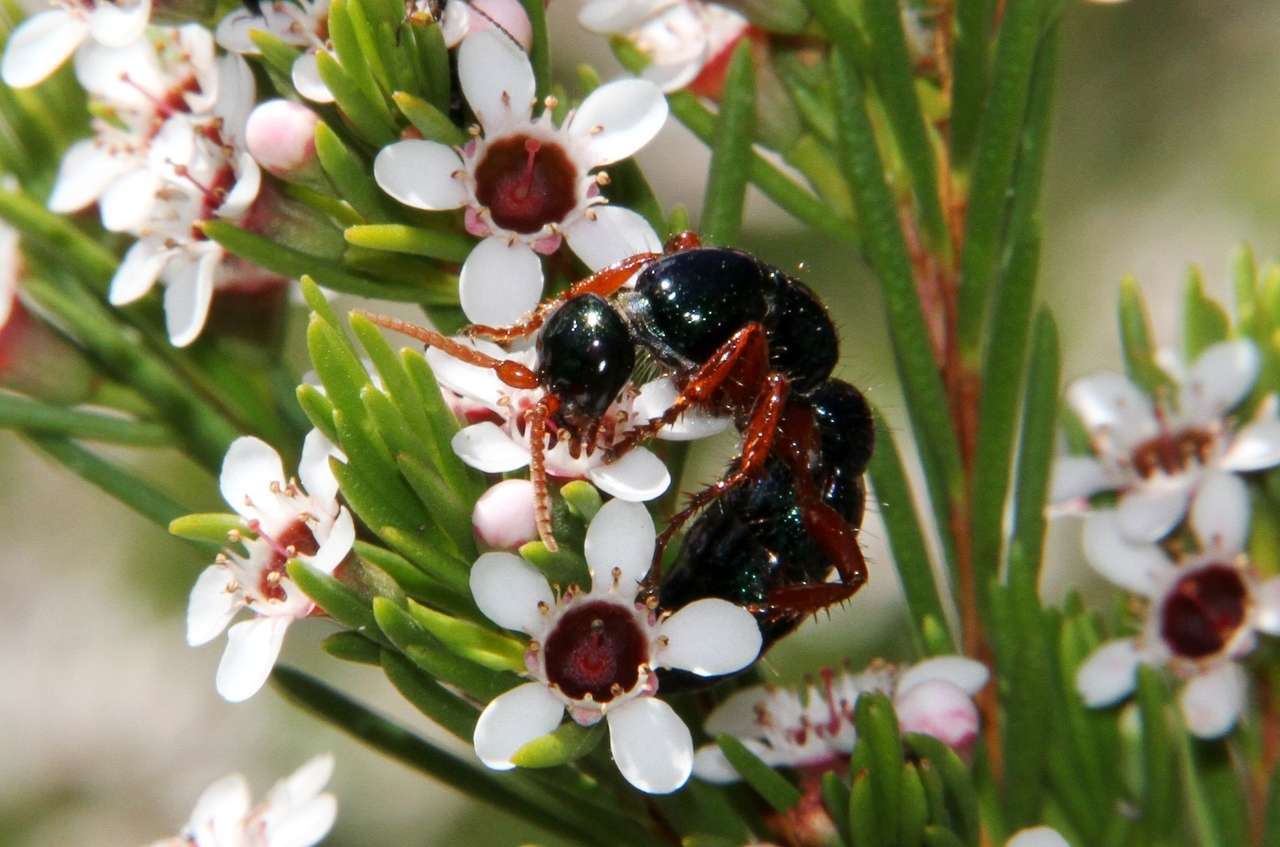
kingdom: Animalia
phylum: Arthropoda
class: Insecta
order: Hymenoptera
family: Tiphiidae
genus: Diamma
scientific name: Diamma
